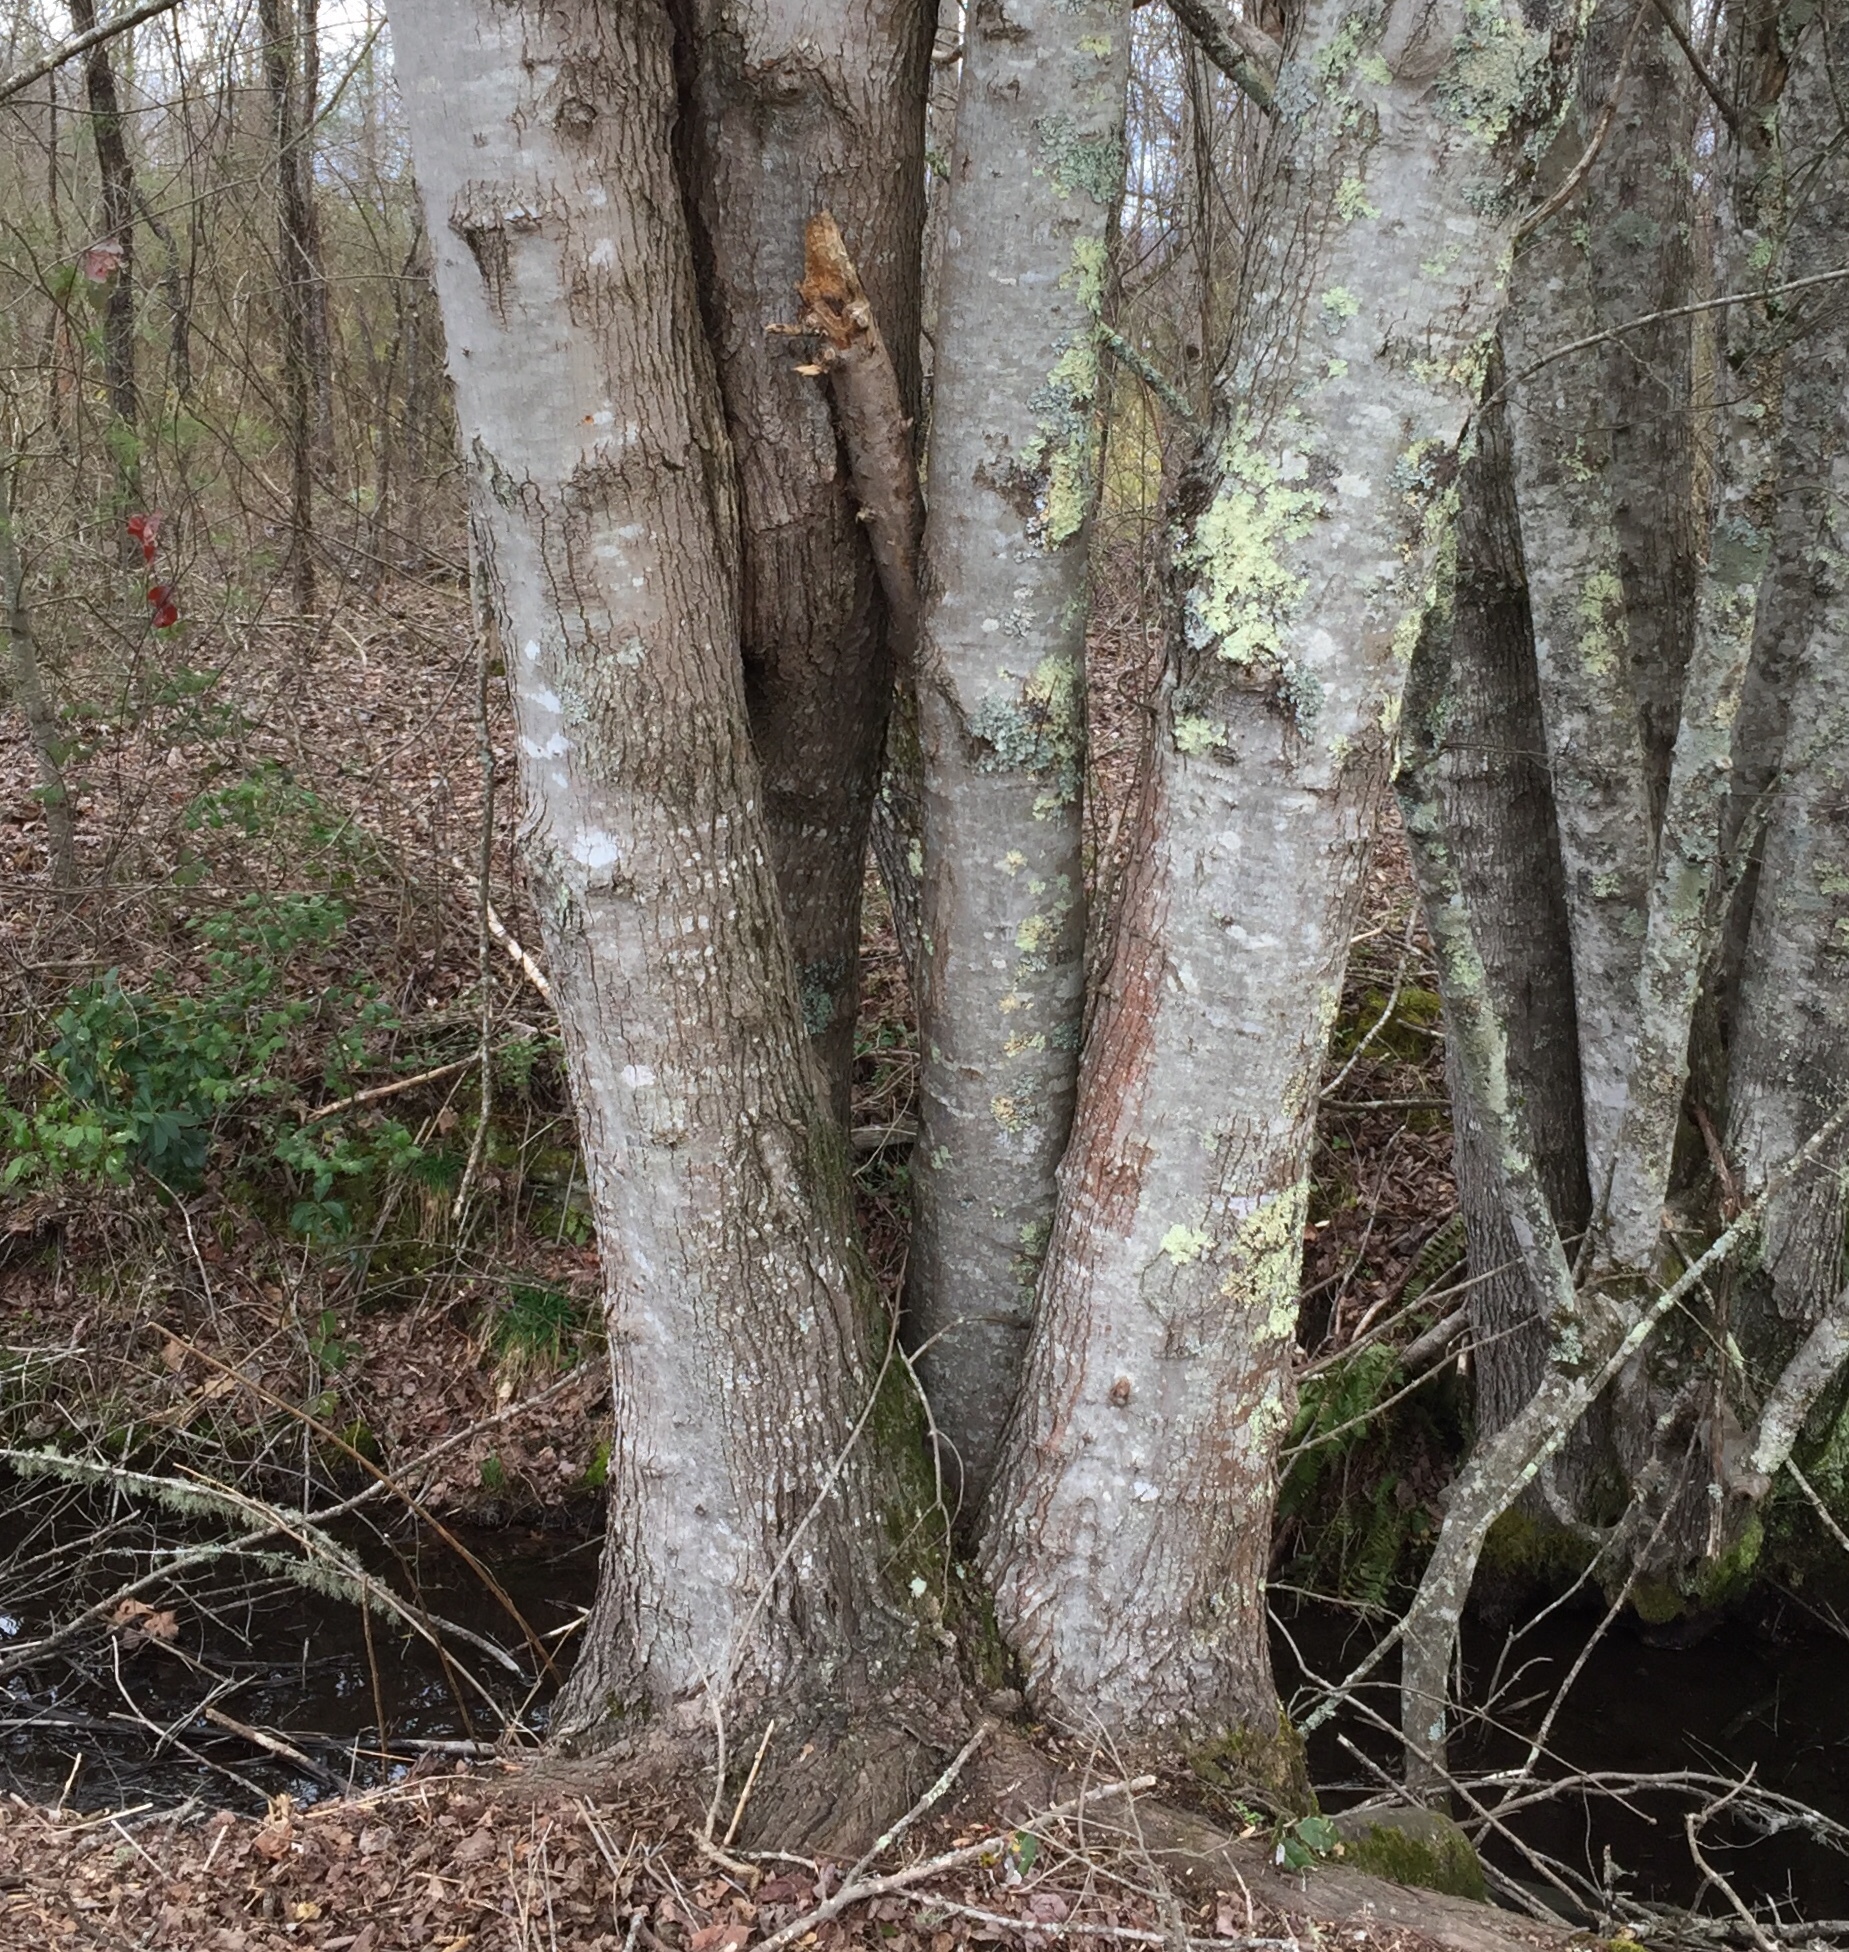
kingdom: Plantae
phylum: Tracheophyta
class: Magnoliopsida
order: Sapindales
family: Sapindaceae
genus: Acer
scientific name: Acer rubrum
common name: Red maple
